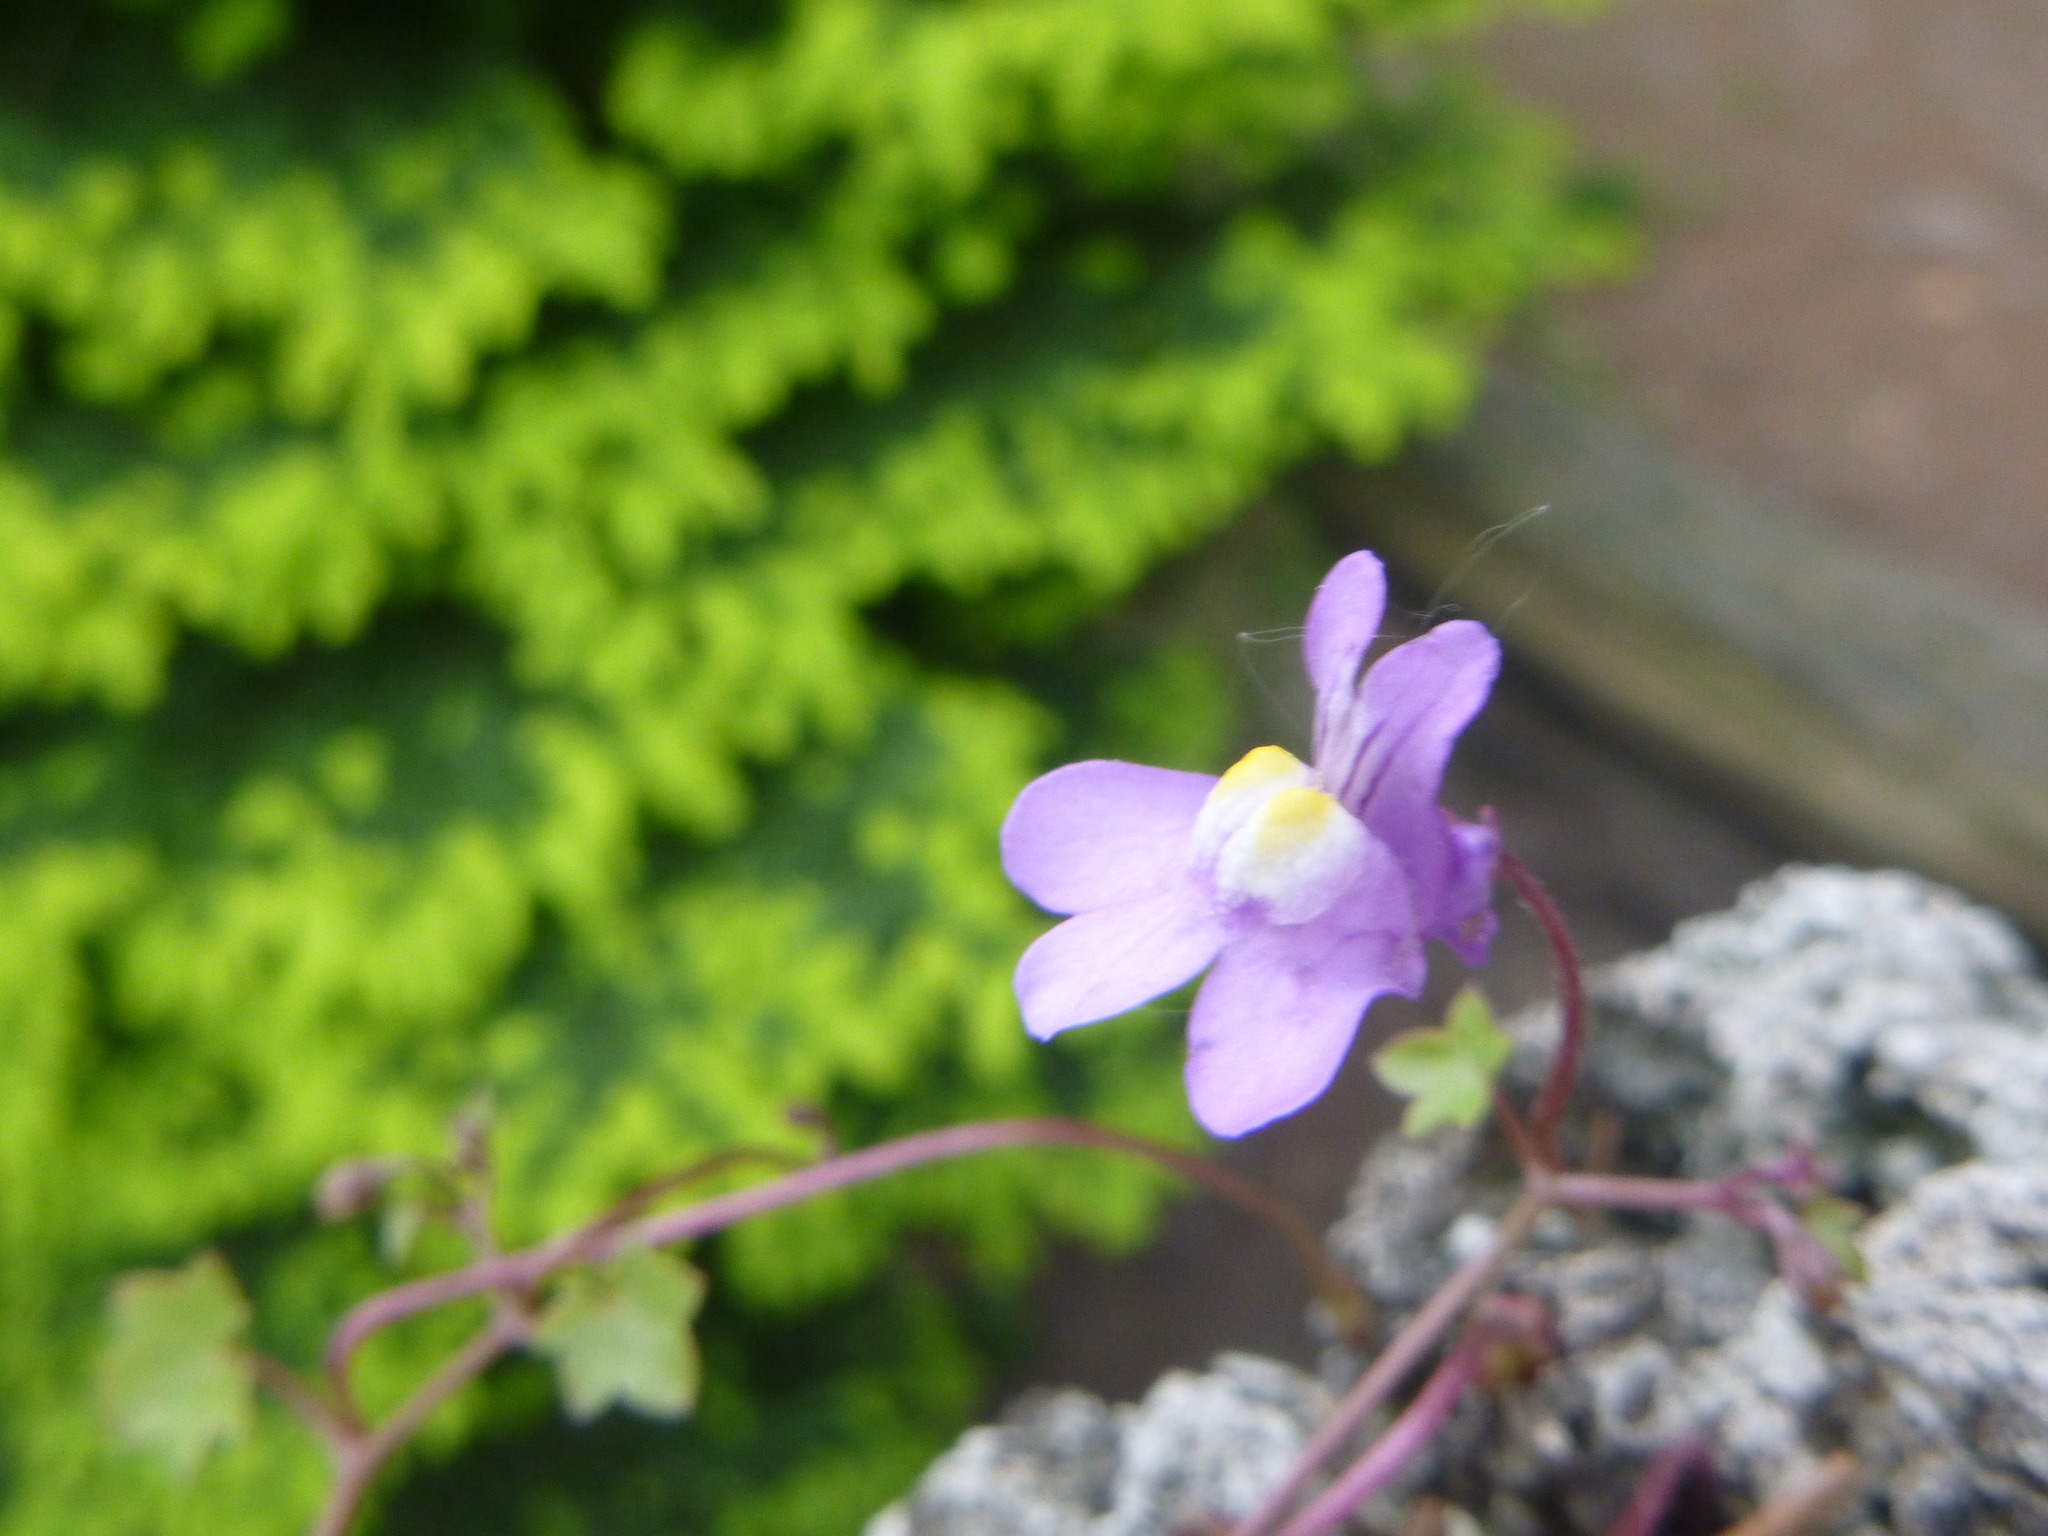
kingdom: Plantae
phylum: Tracheophyta
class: Magnoliopsida
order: Lamiales
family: Plantaginaceae
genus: Cymbalaria
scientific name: Cymbalaria muralis
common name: Ivy-leaved toadflax
